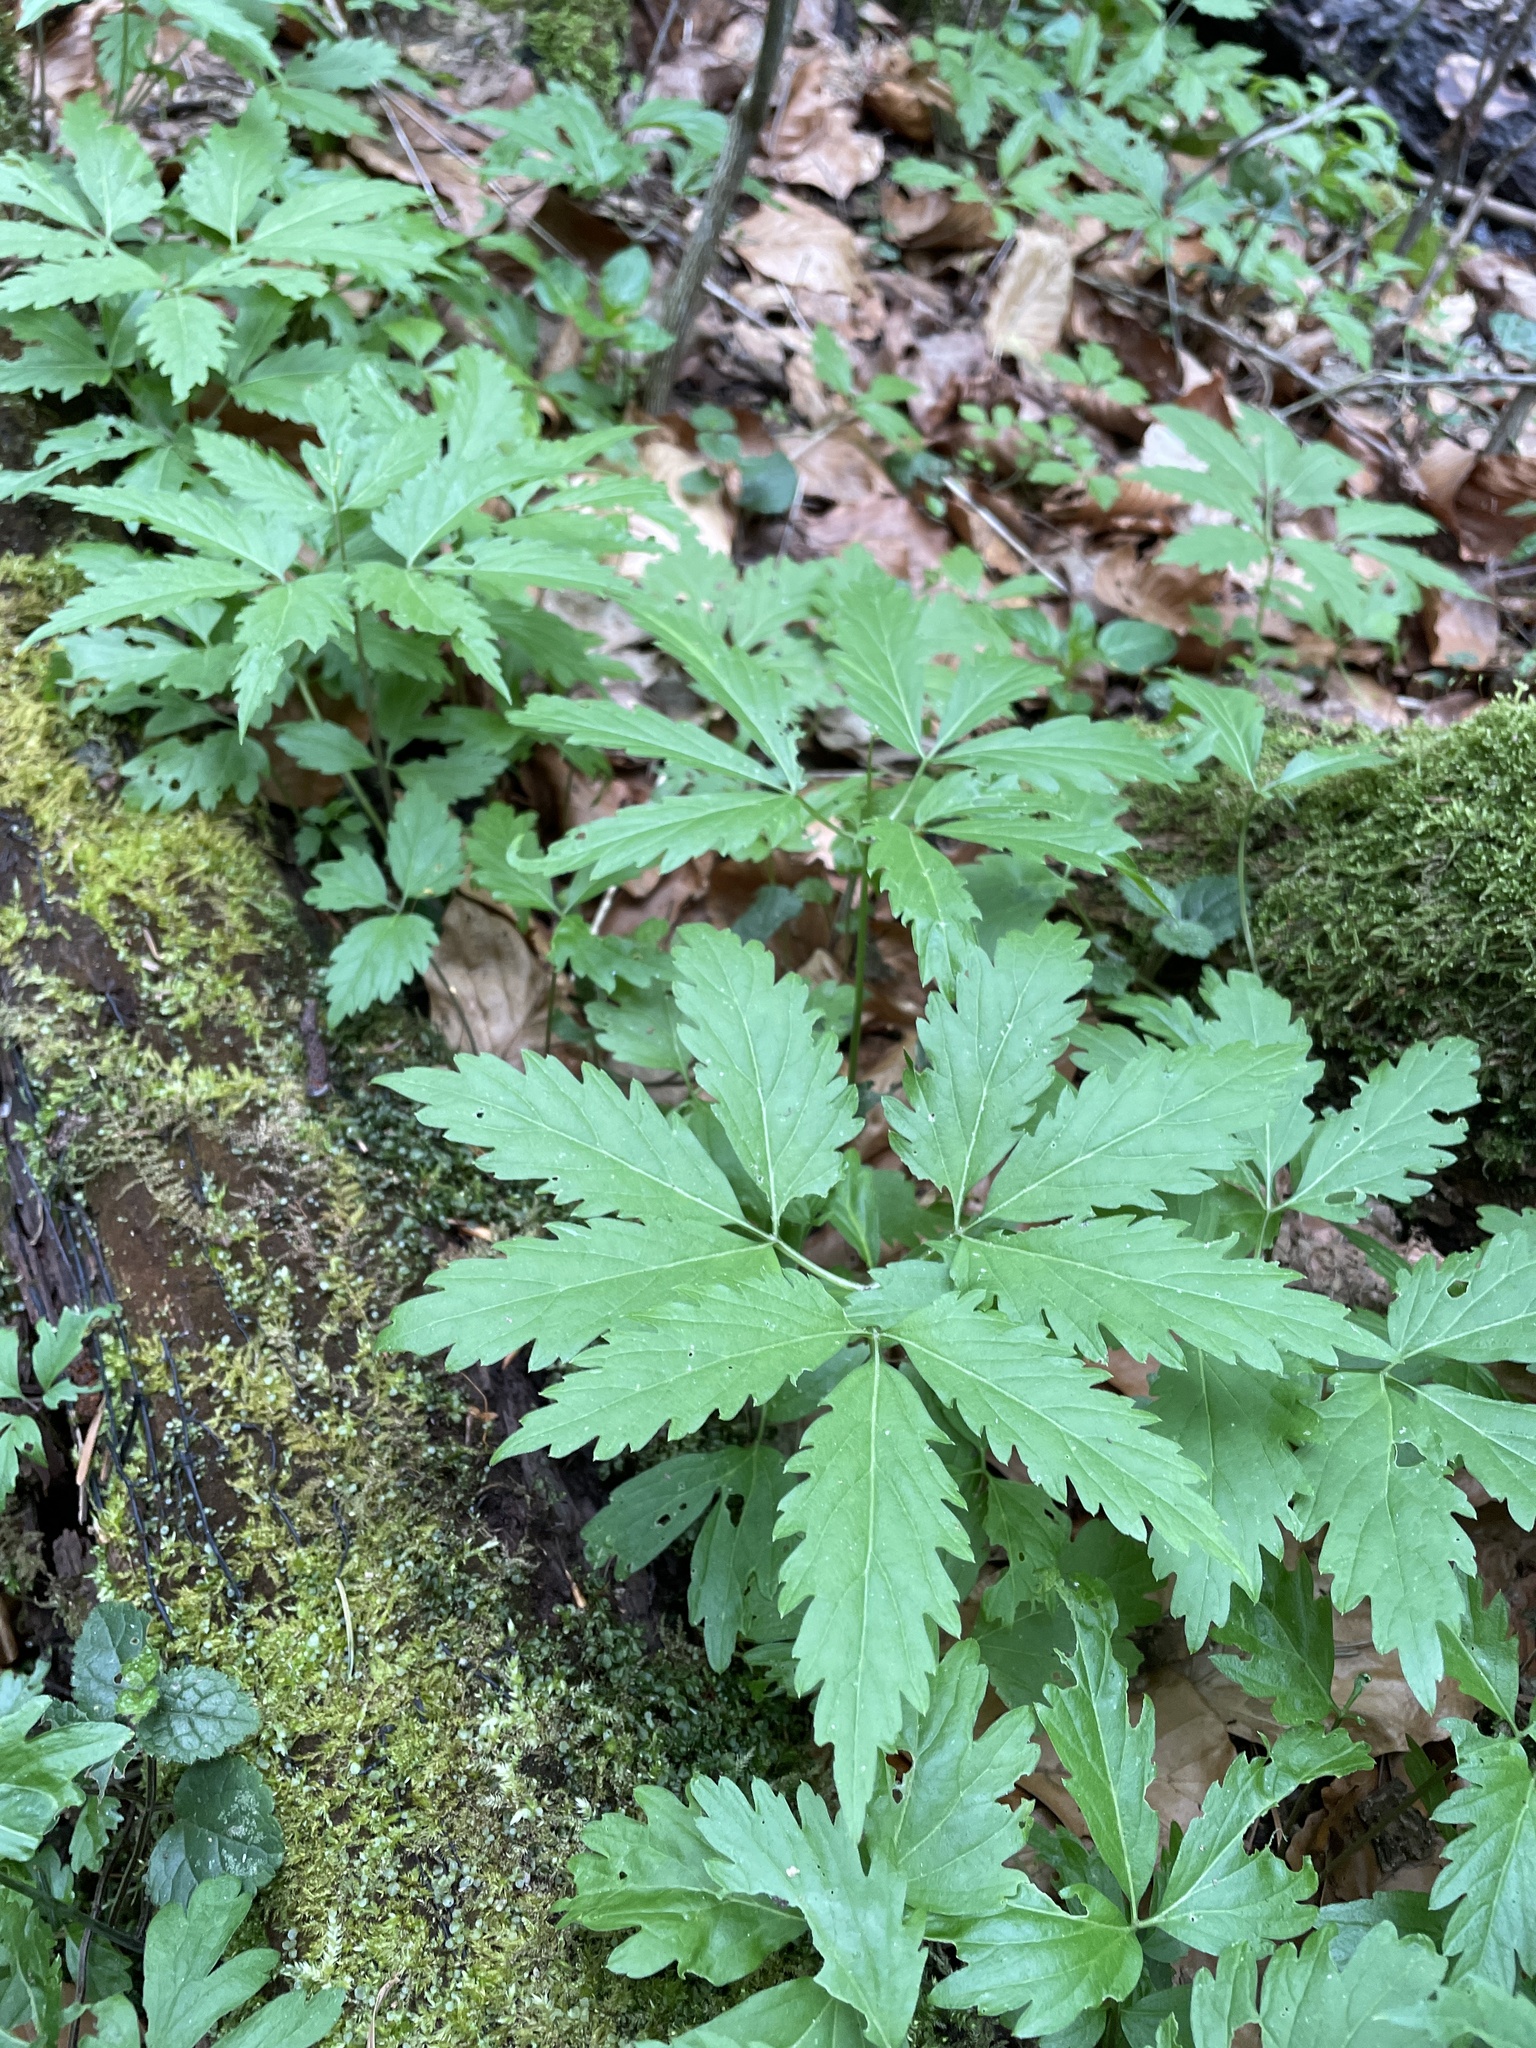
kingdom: Plantae
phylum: Tracheophyta
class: Magnoliopsida
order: Brassicales
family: Brassicaceae
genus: Cardamine
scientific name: Cardamine glanduligera
